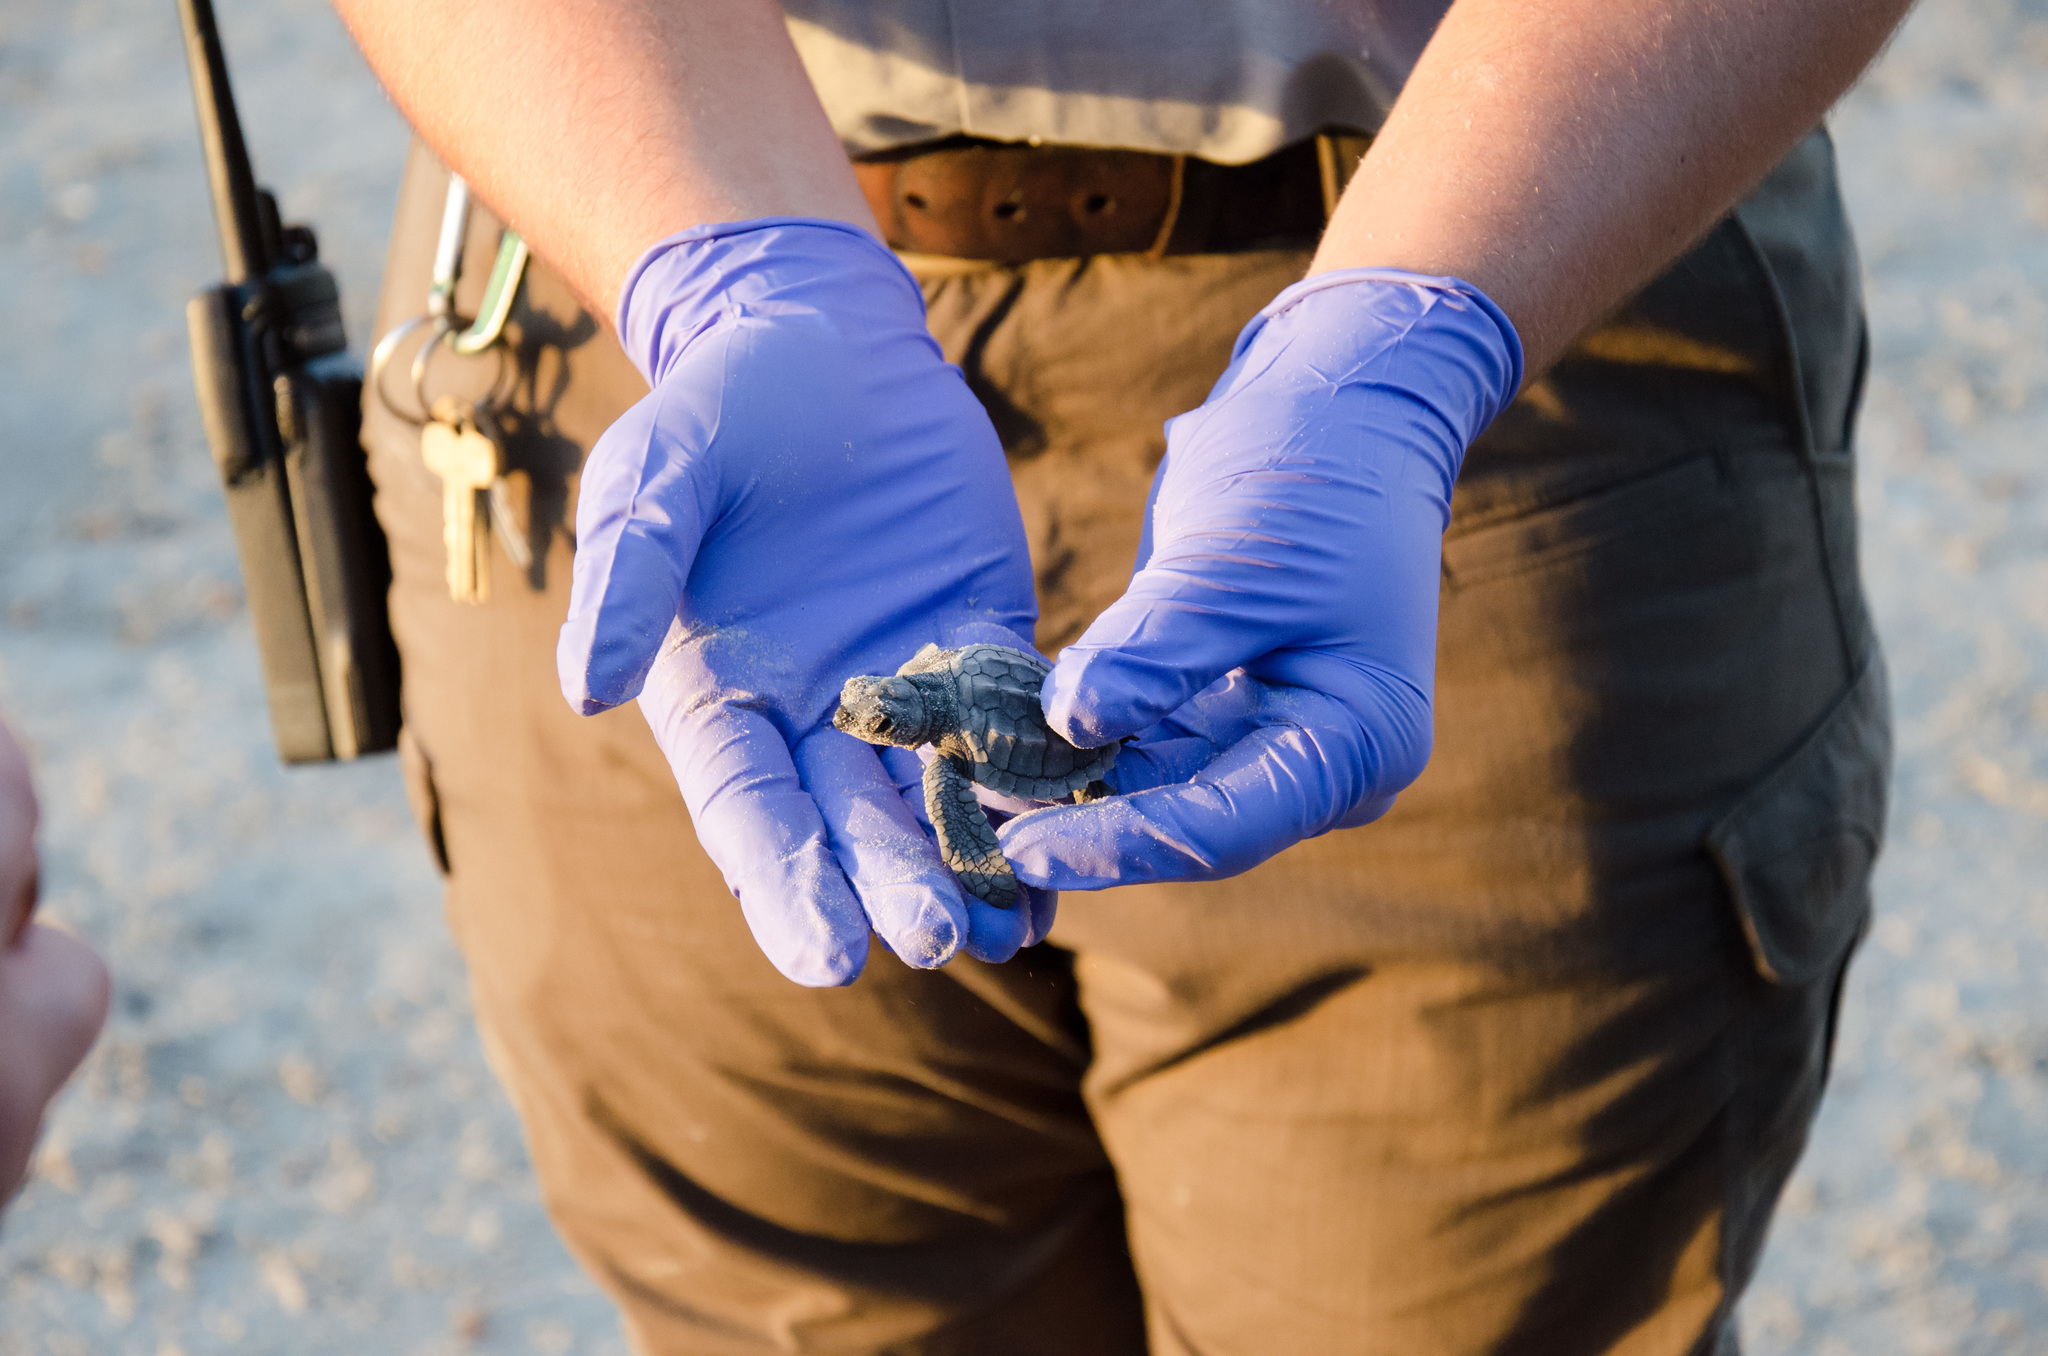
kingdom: Animalia
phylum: Chordata
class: Testudines
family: Cheloniidae
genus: Lepidochelys
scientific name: Lepidochelys kempii
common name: Kemp's ridley turtle
